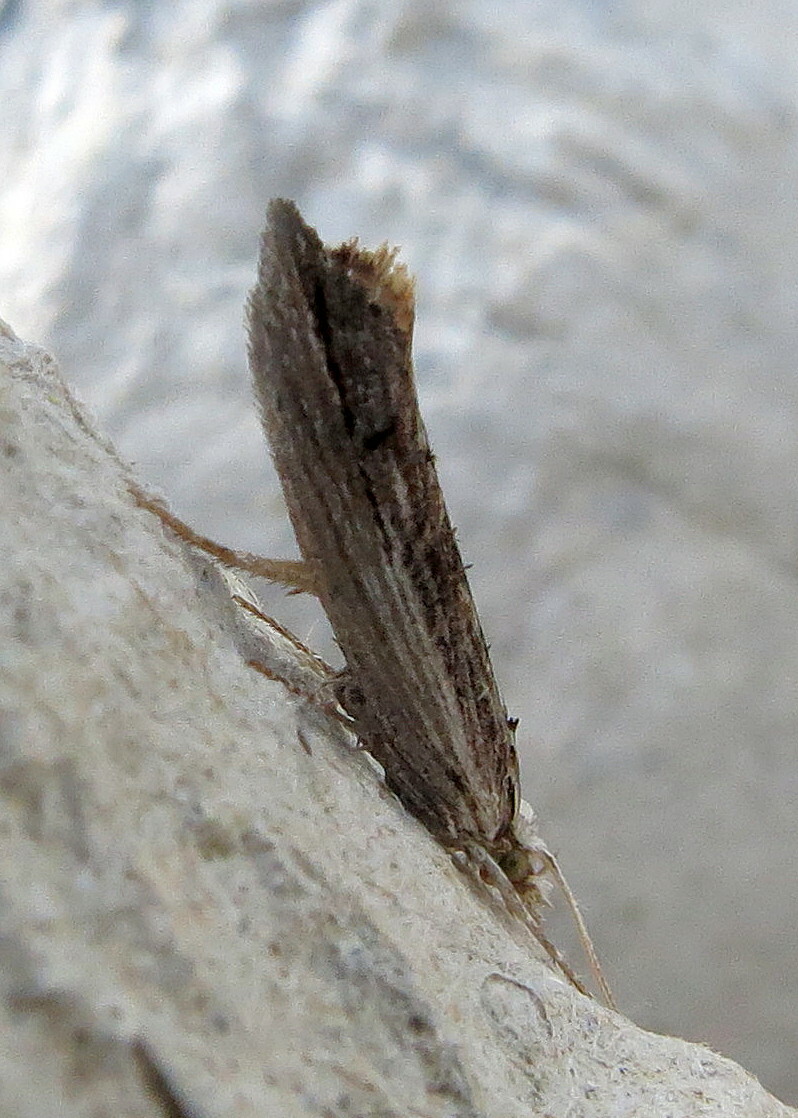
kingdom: Animalia
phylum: Arthropoda
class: Insecta
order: Lepidoptera
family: Ypsolophidae
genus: Ypsolopha
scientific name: Ypsolopha scabrella
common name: Wainscot smudge
